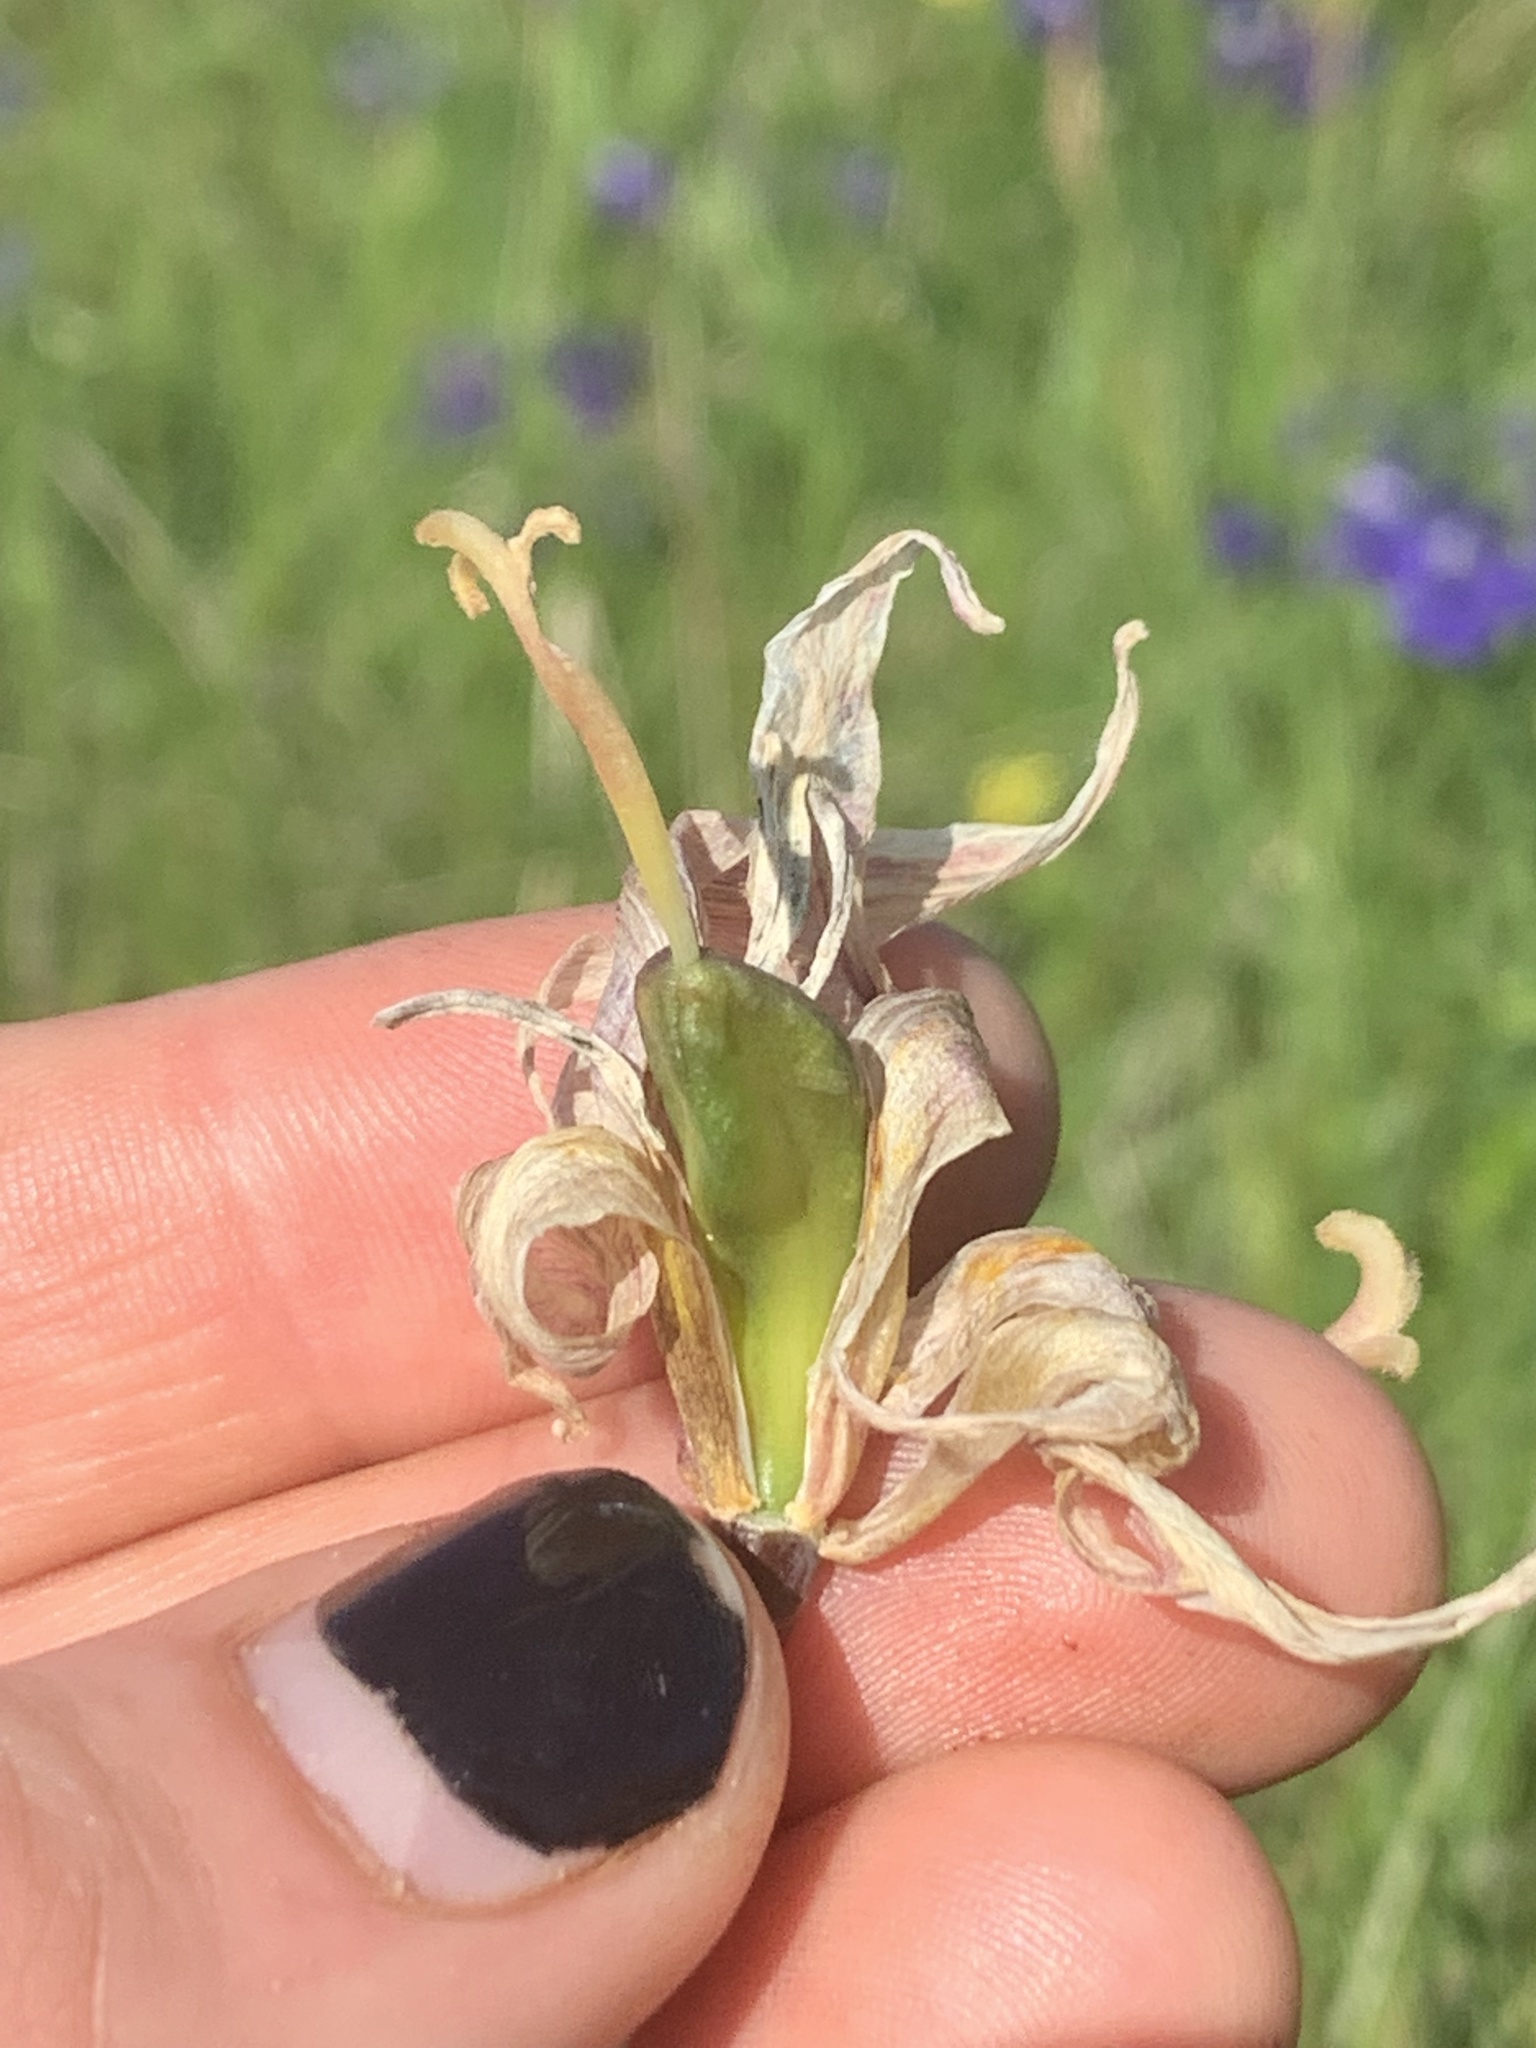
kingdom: Plantae
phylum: Tracheophyta
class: Liliopsida
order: Liliales
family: Liliaceae
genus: Erythronium
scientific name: Erythronium oregonum
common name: Giant adder's-tongue
